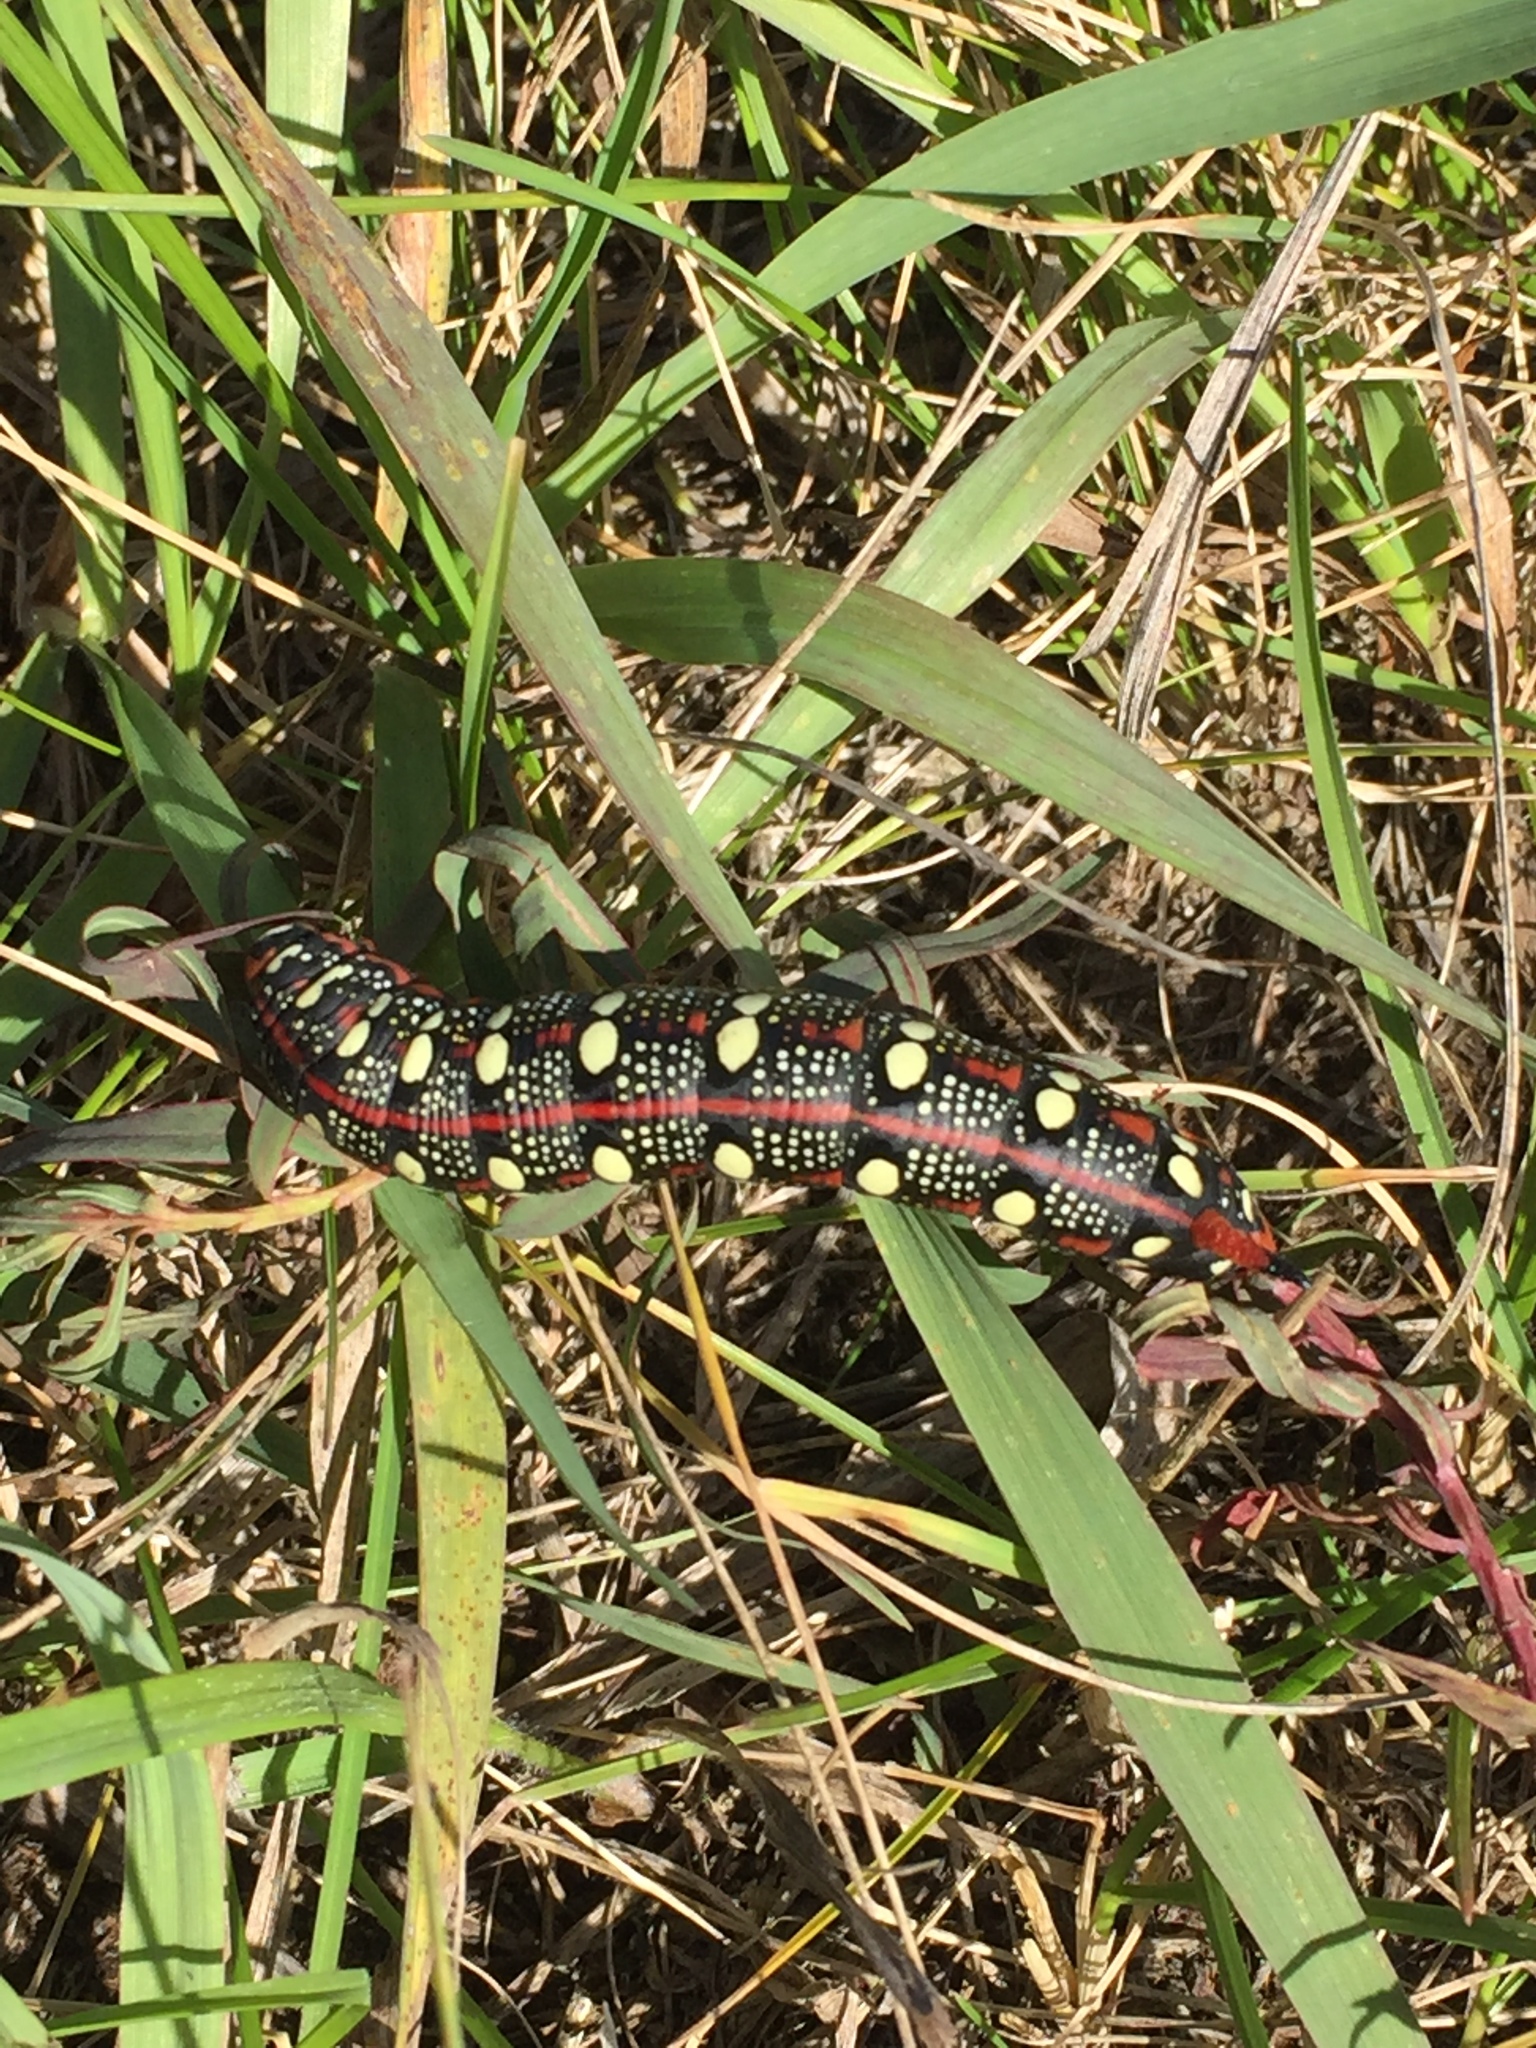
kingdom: Animalia
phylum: Arthropoda
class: Insecta
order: Lepidoptera
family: Sphingidae
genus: Hyles
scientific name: Hyles euphorbiae
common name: Spurge hawk-moth
